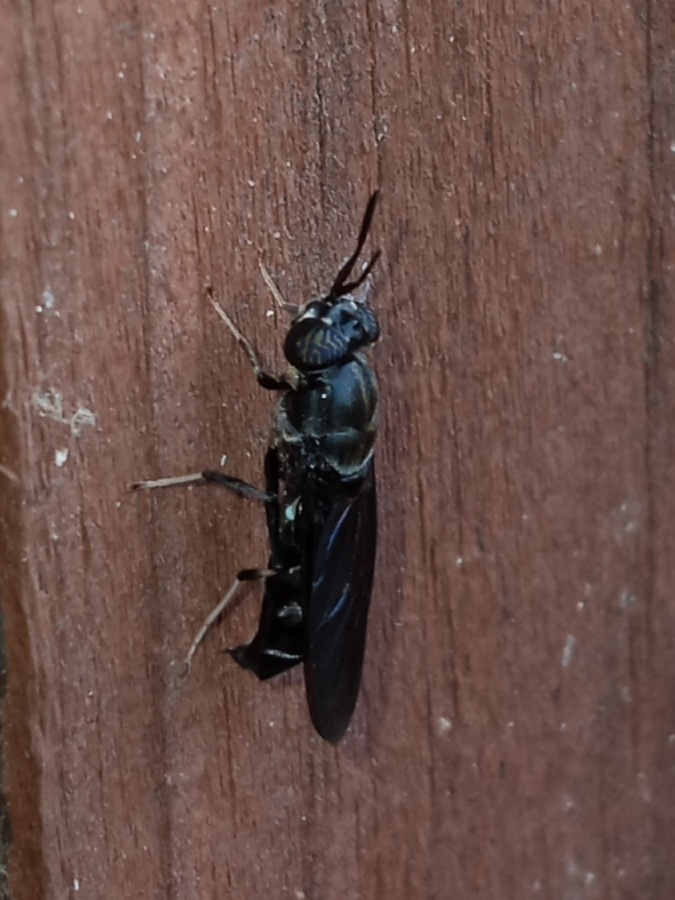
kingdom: Animalia
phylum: Arthropoda
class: Insecta
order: Diptera
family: Stratiomyidae
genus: Hermetia
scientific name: Hermetia illucens
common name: Black soldier fly
